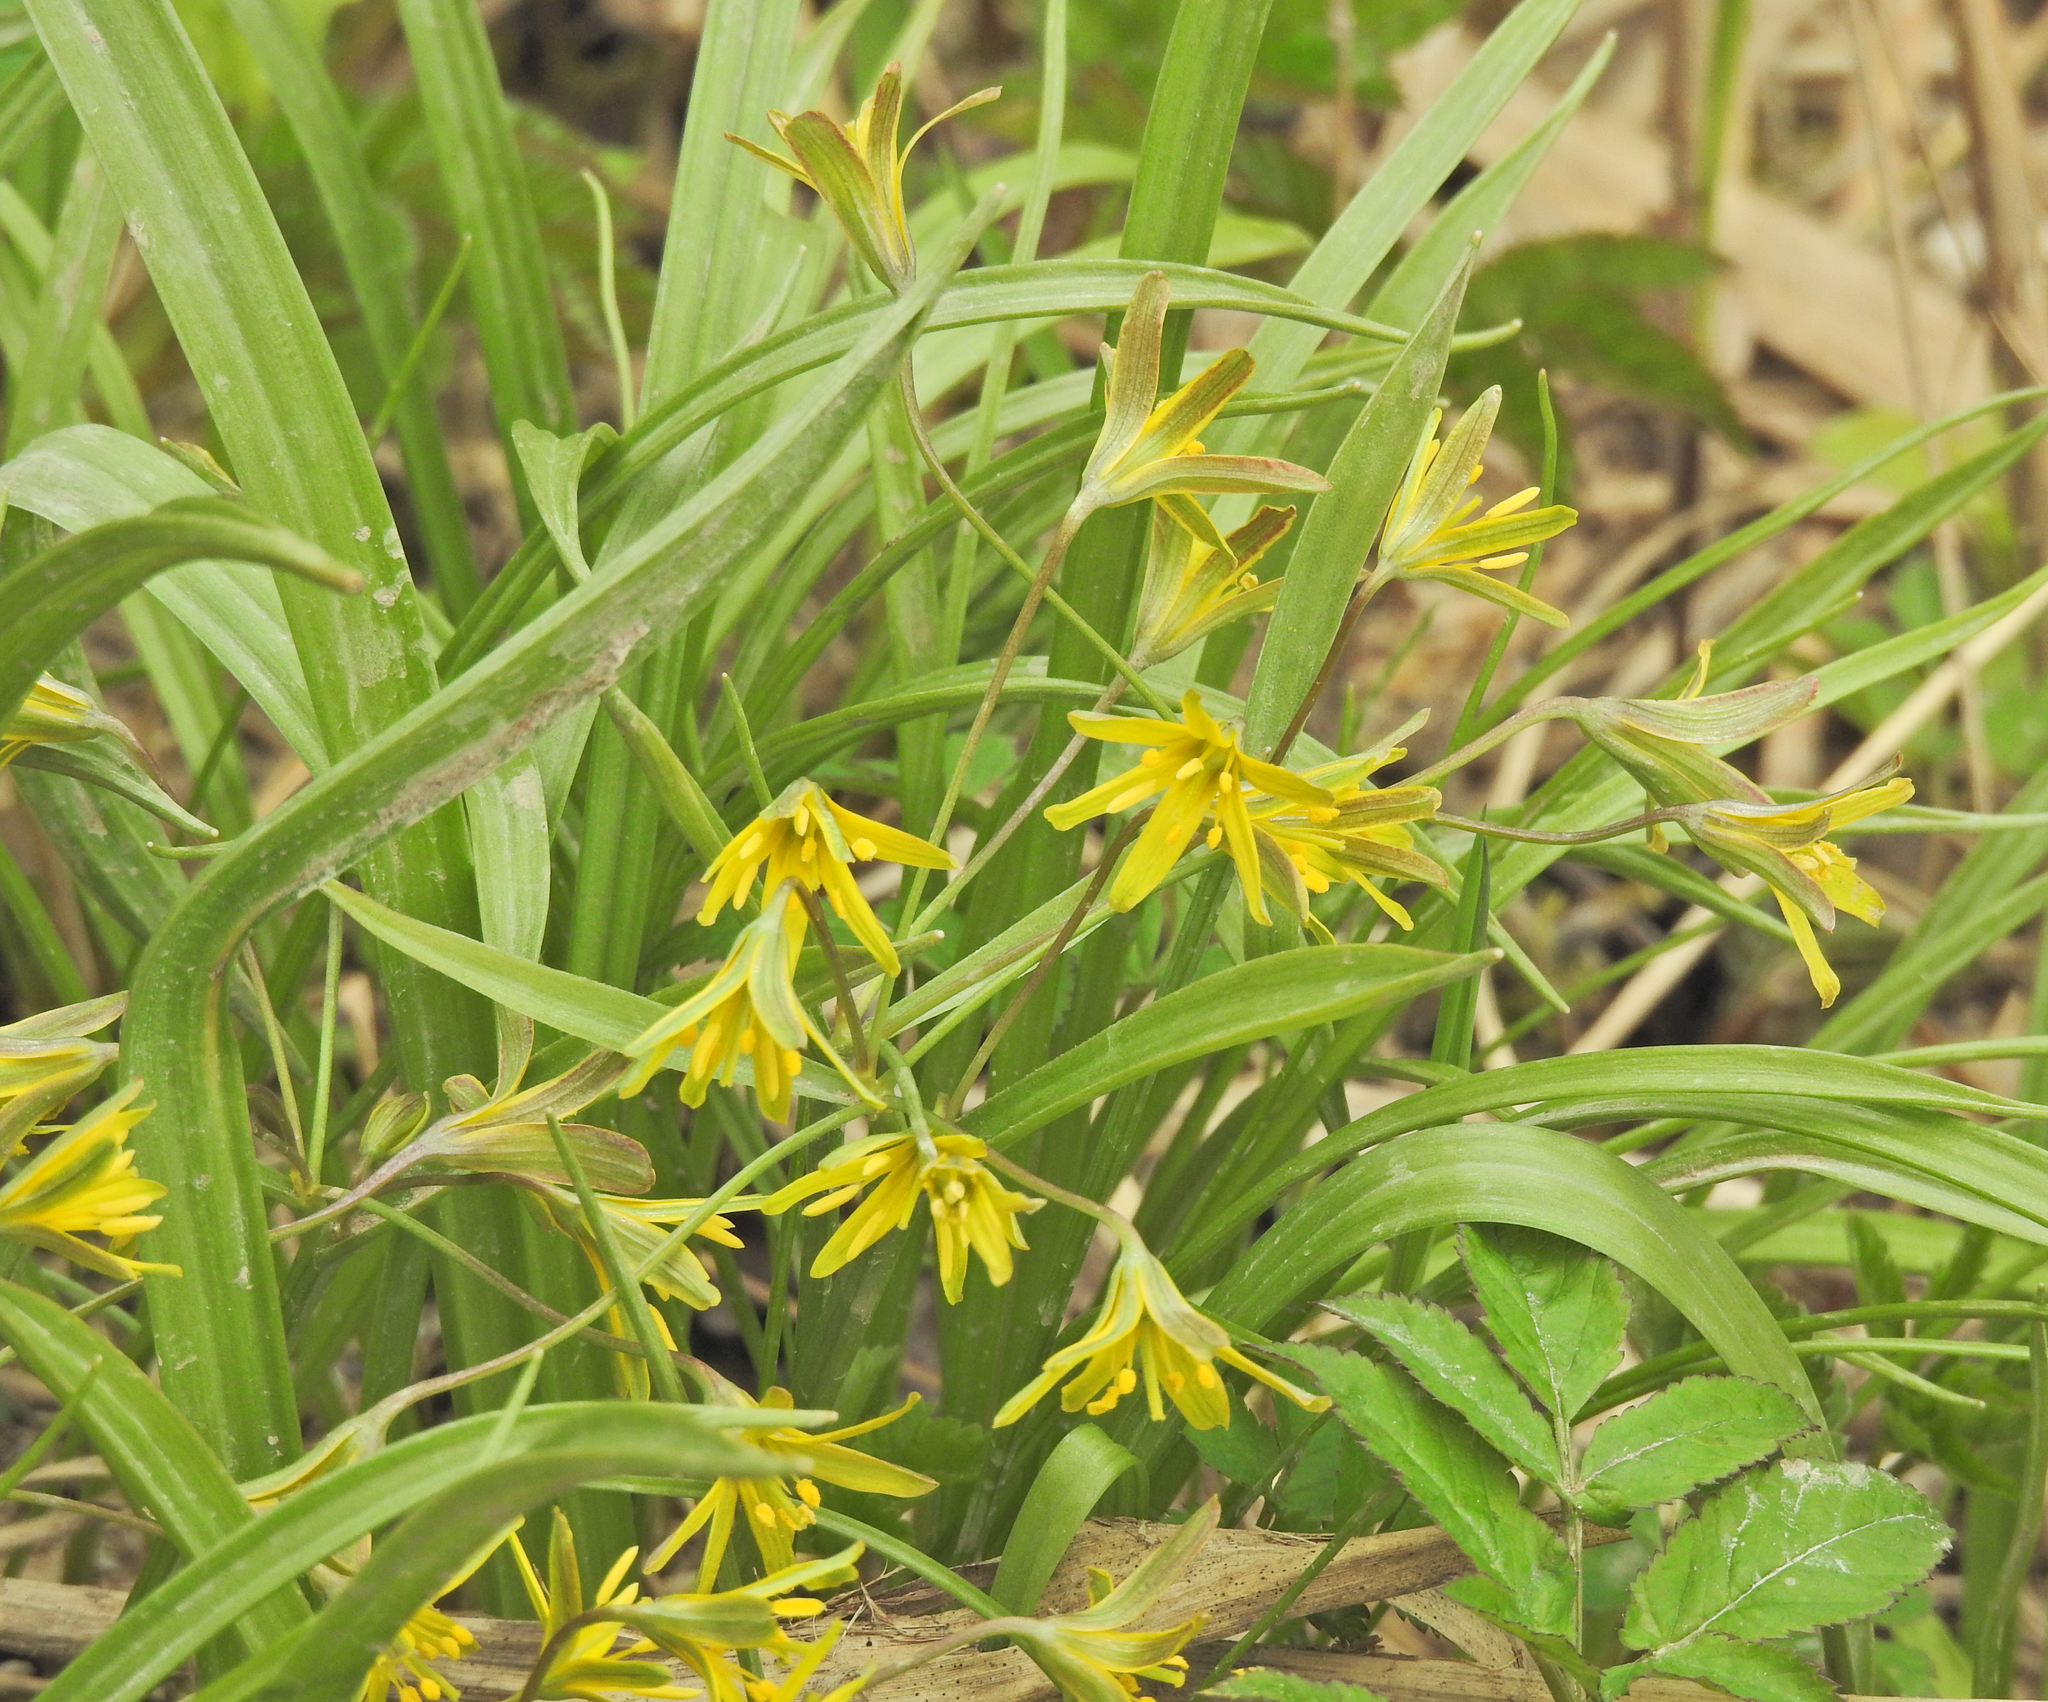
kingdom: Plantae
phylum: Tracheophyta
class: Liliopsida
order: Liliales
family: Liliaceae
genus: Gagea
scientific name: Gagea lutea
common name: Yellow star-of-bethlehem
